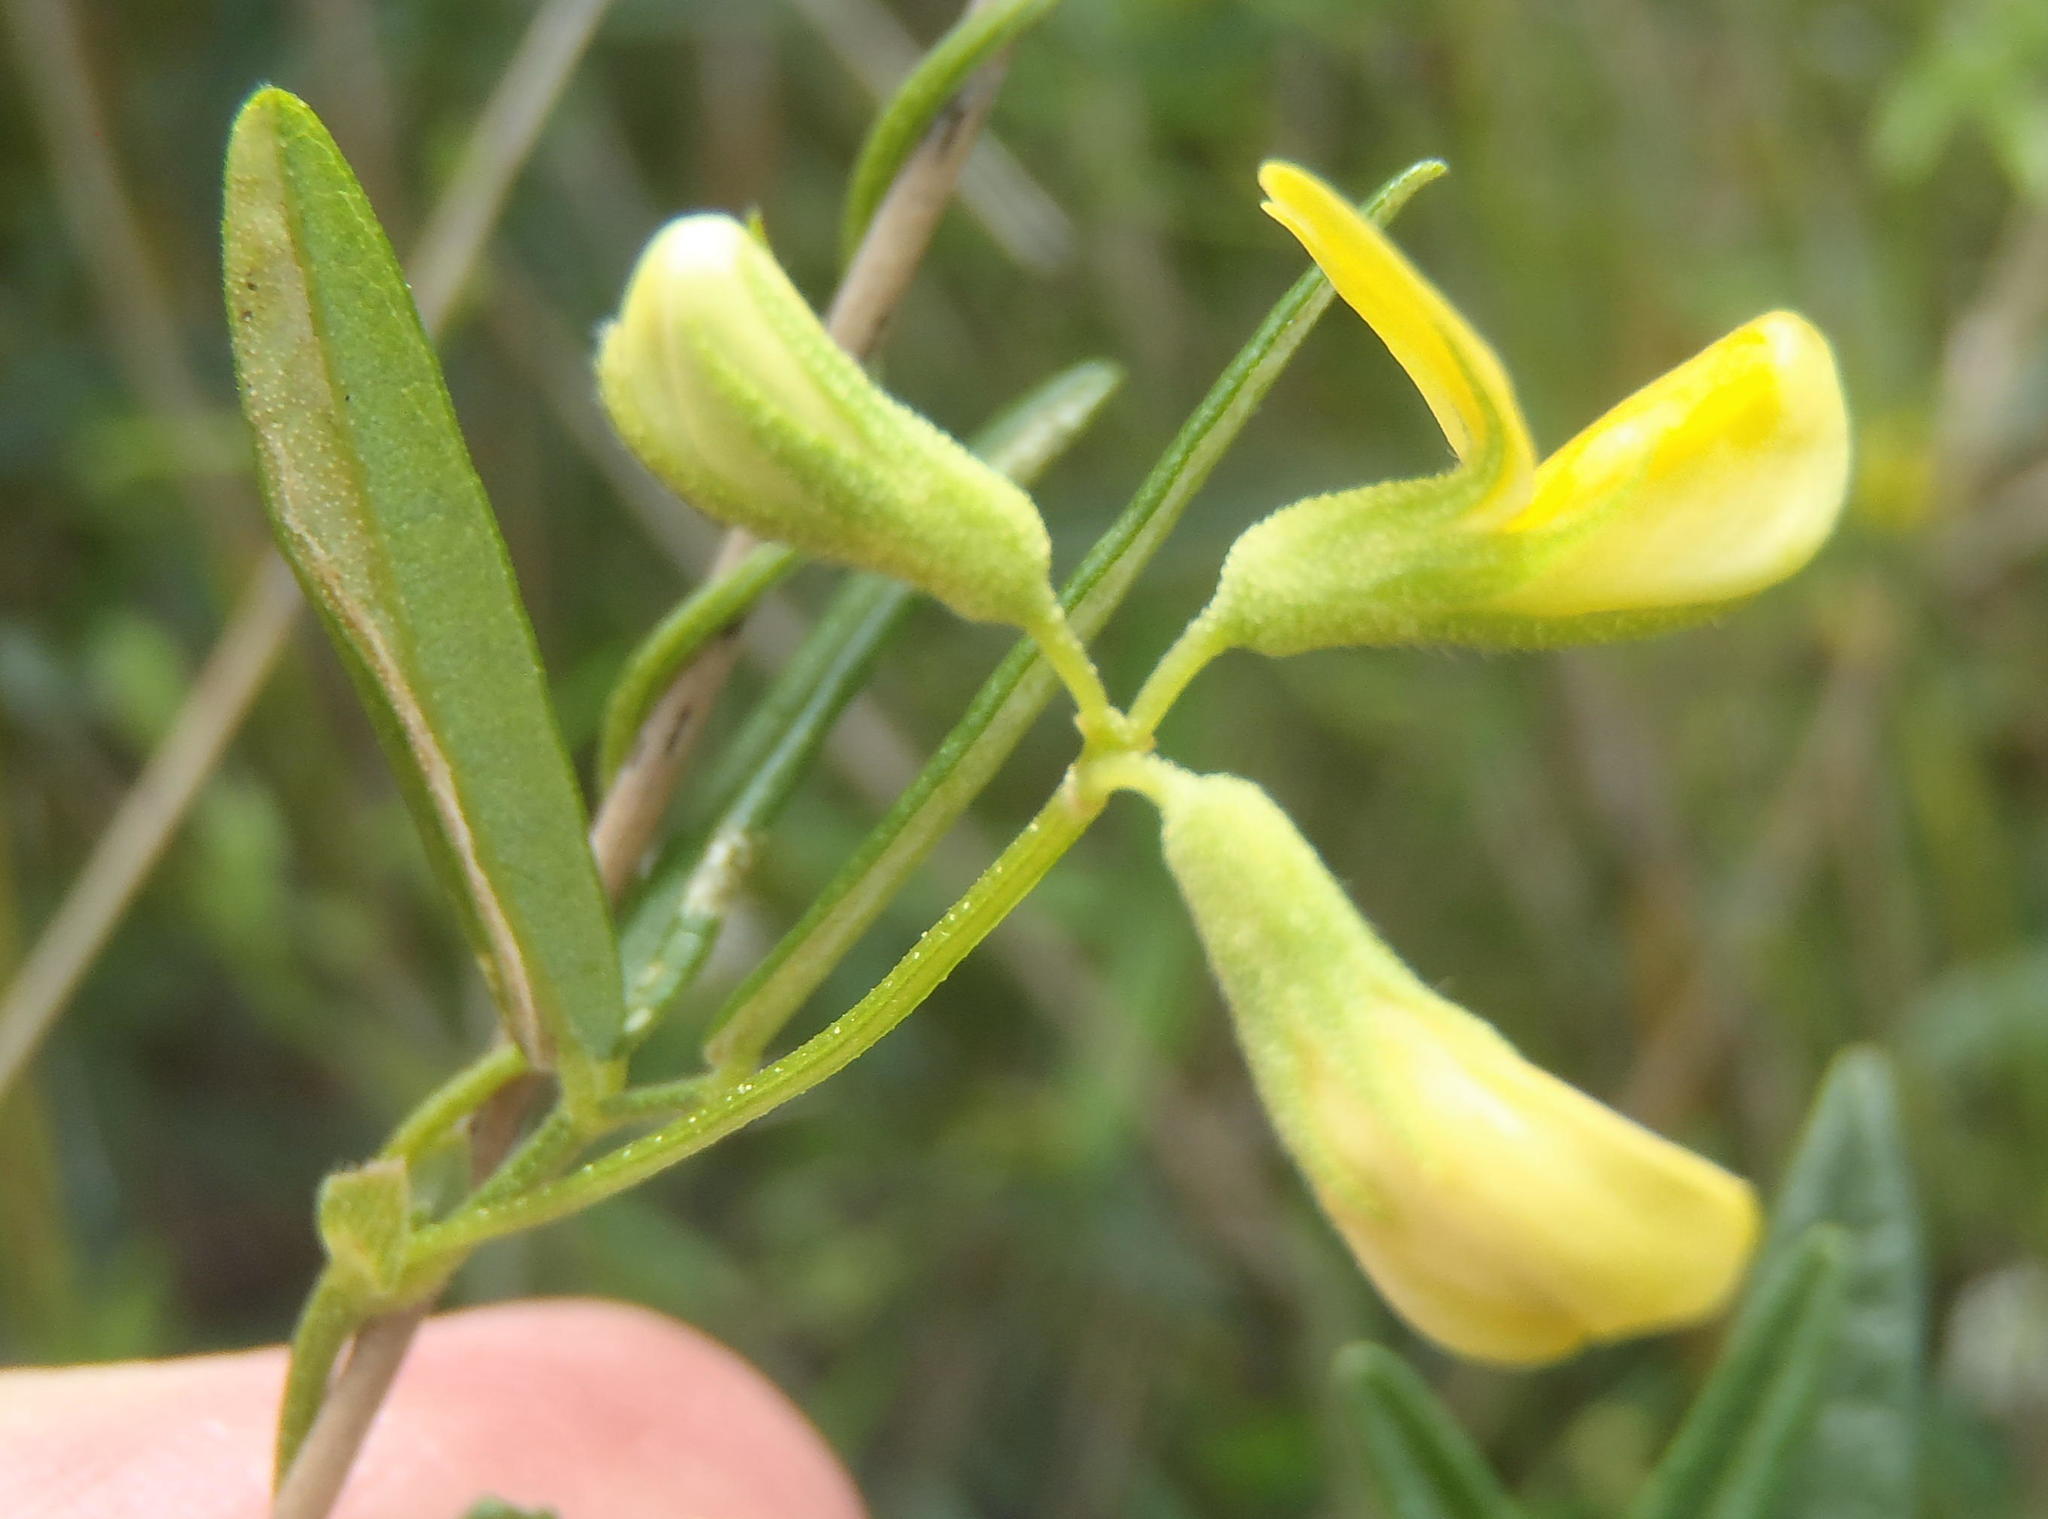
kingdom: Plantae
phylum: Tracheophyta
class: Magnoliopsida
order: Fabales
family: Fabaceae
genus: Rhynchosia
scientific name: Rhynchosia leucoscias
